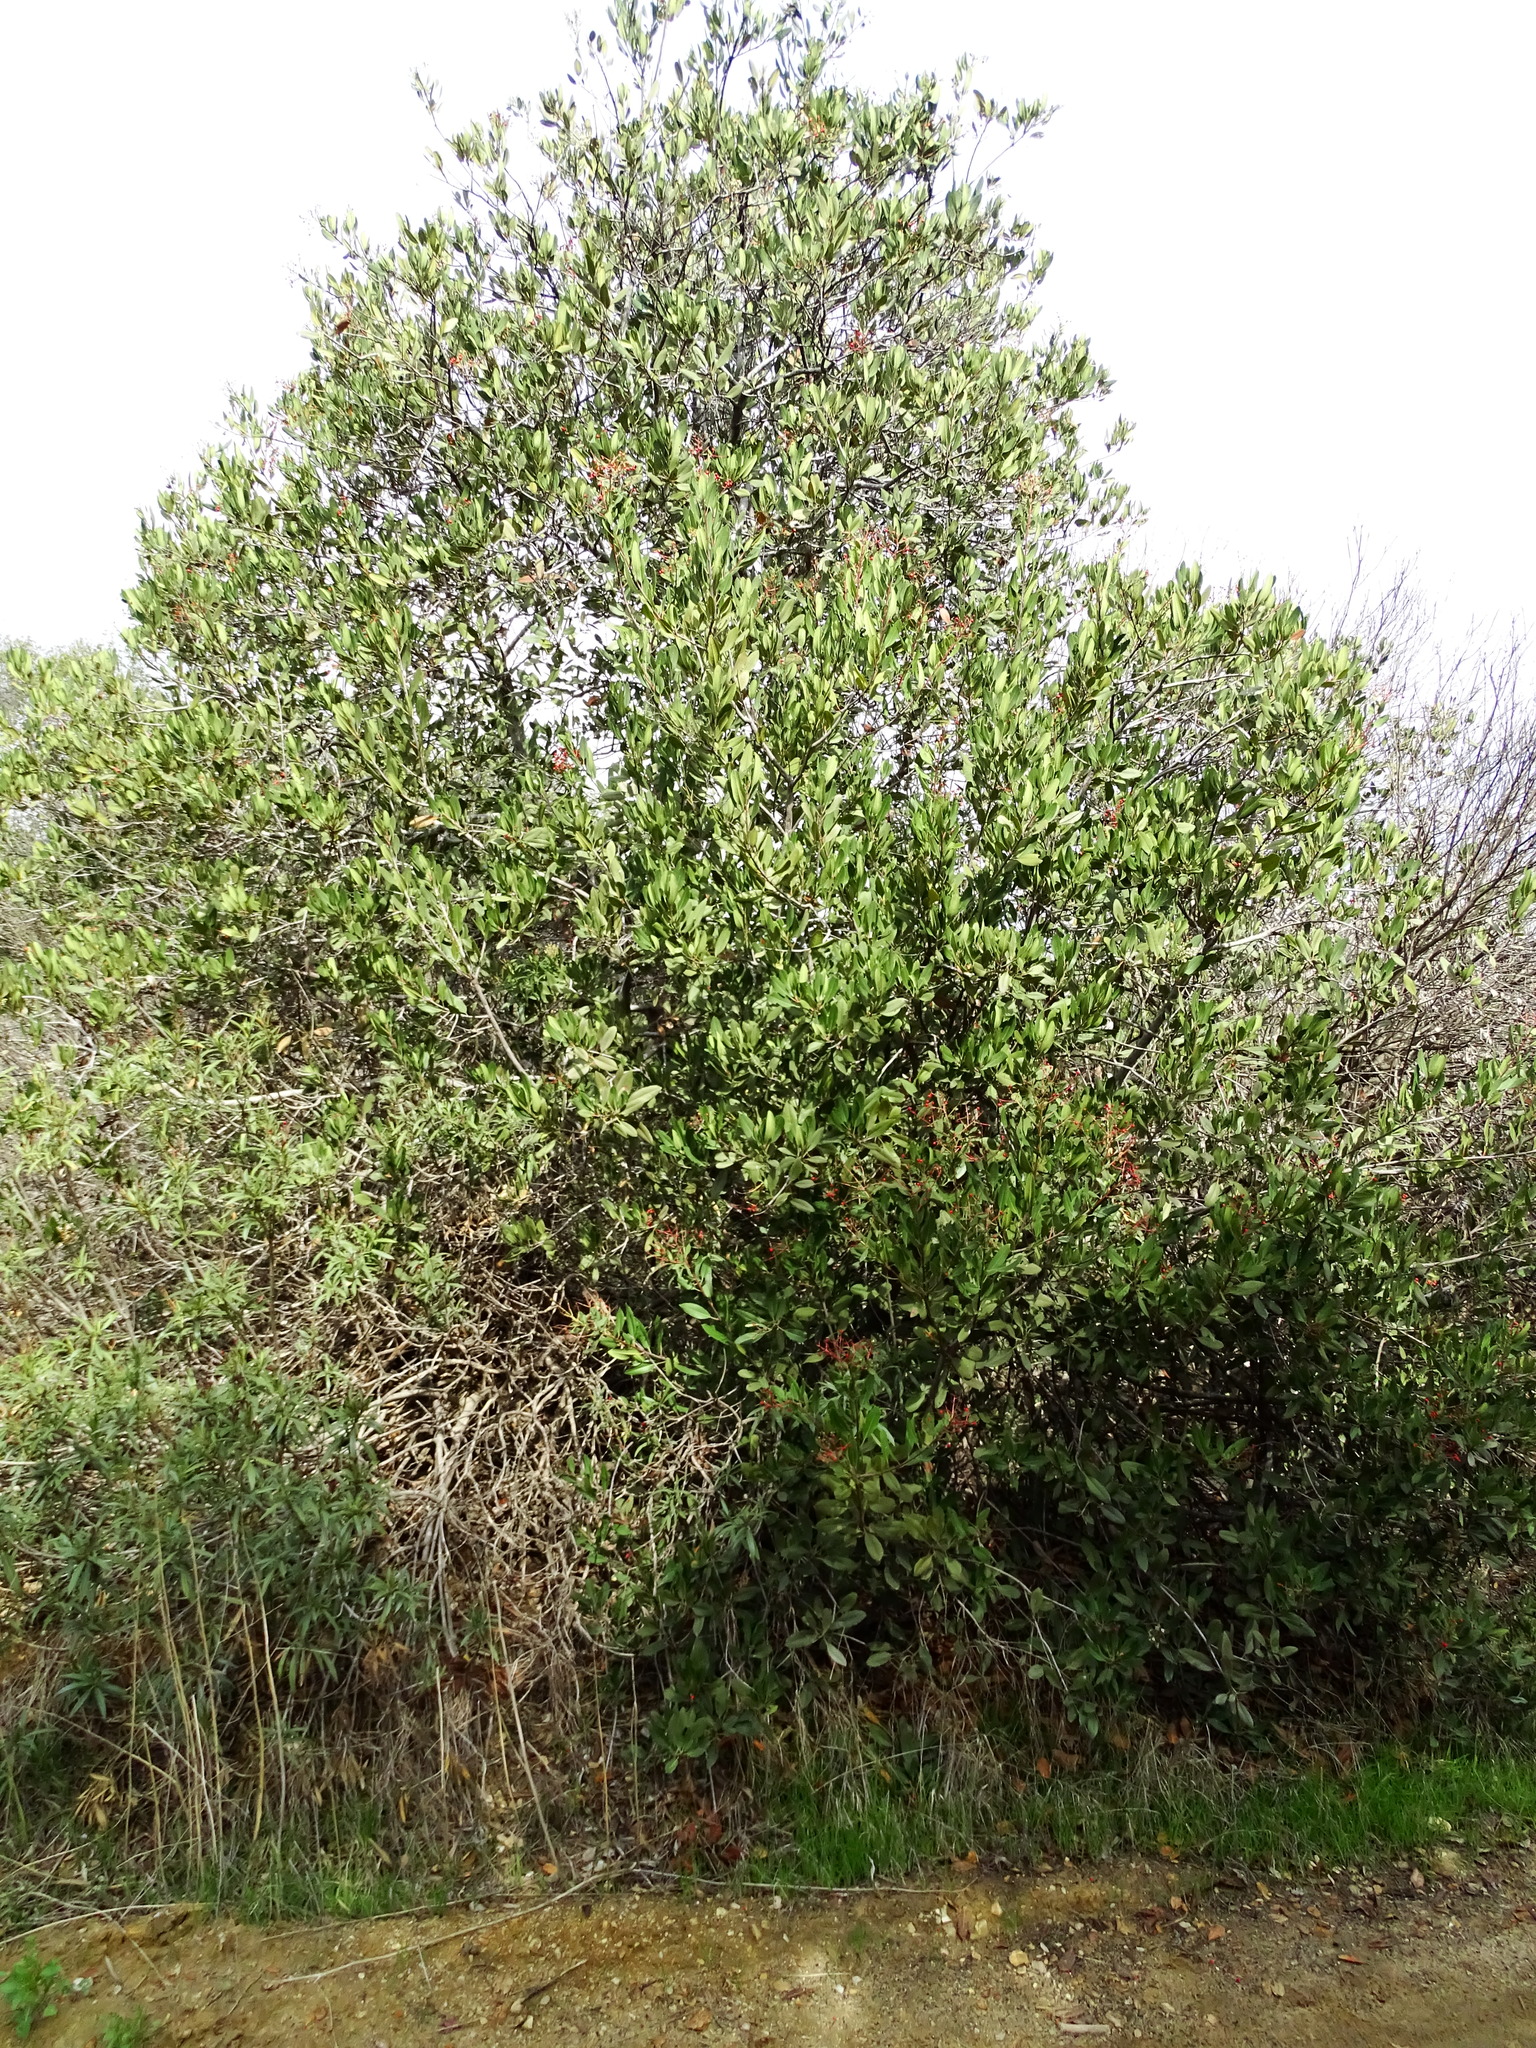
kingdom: Plantae
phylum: Tracheophyta
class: Magnoliopsida
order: Rosales
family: Rosaceae
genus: Heteromeles
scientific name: Heteromeles arbutifolia
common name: California-holly
